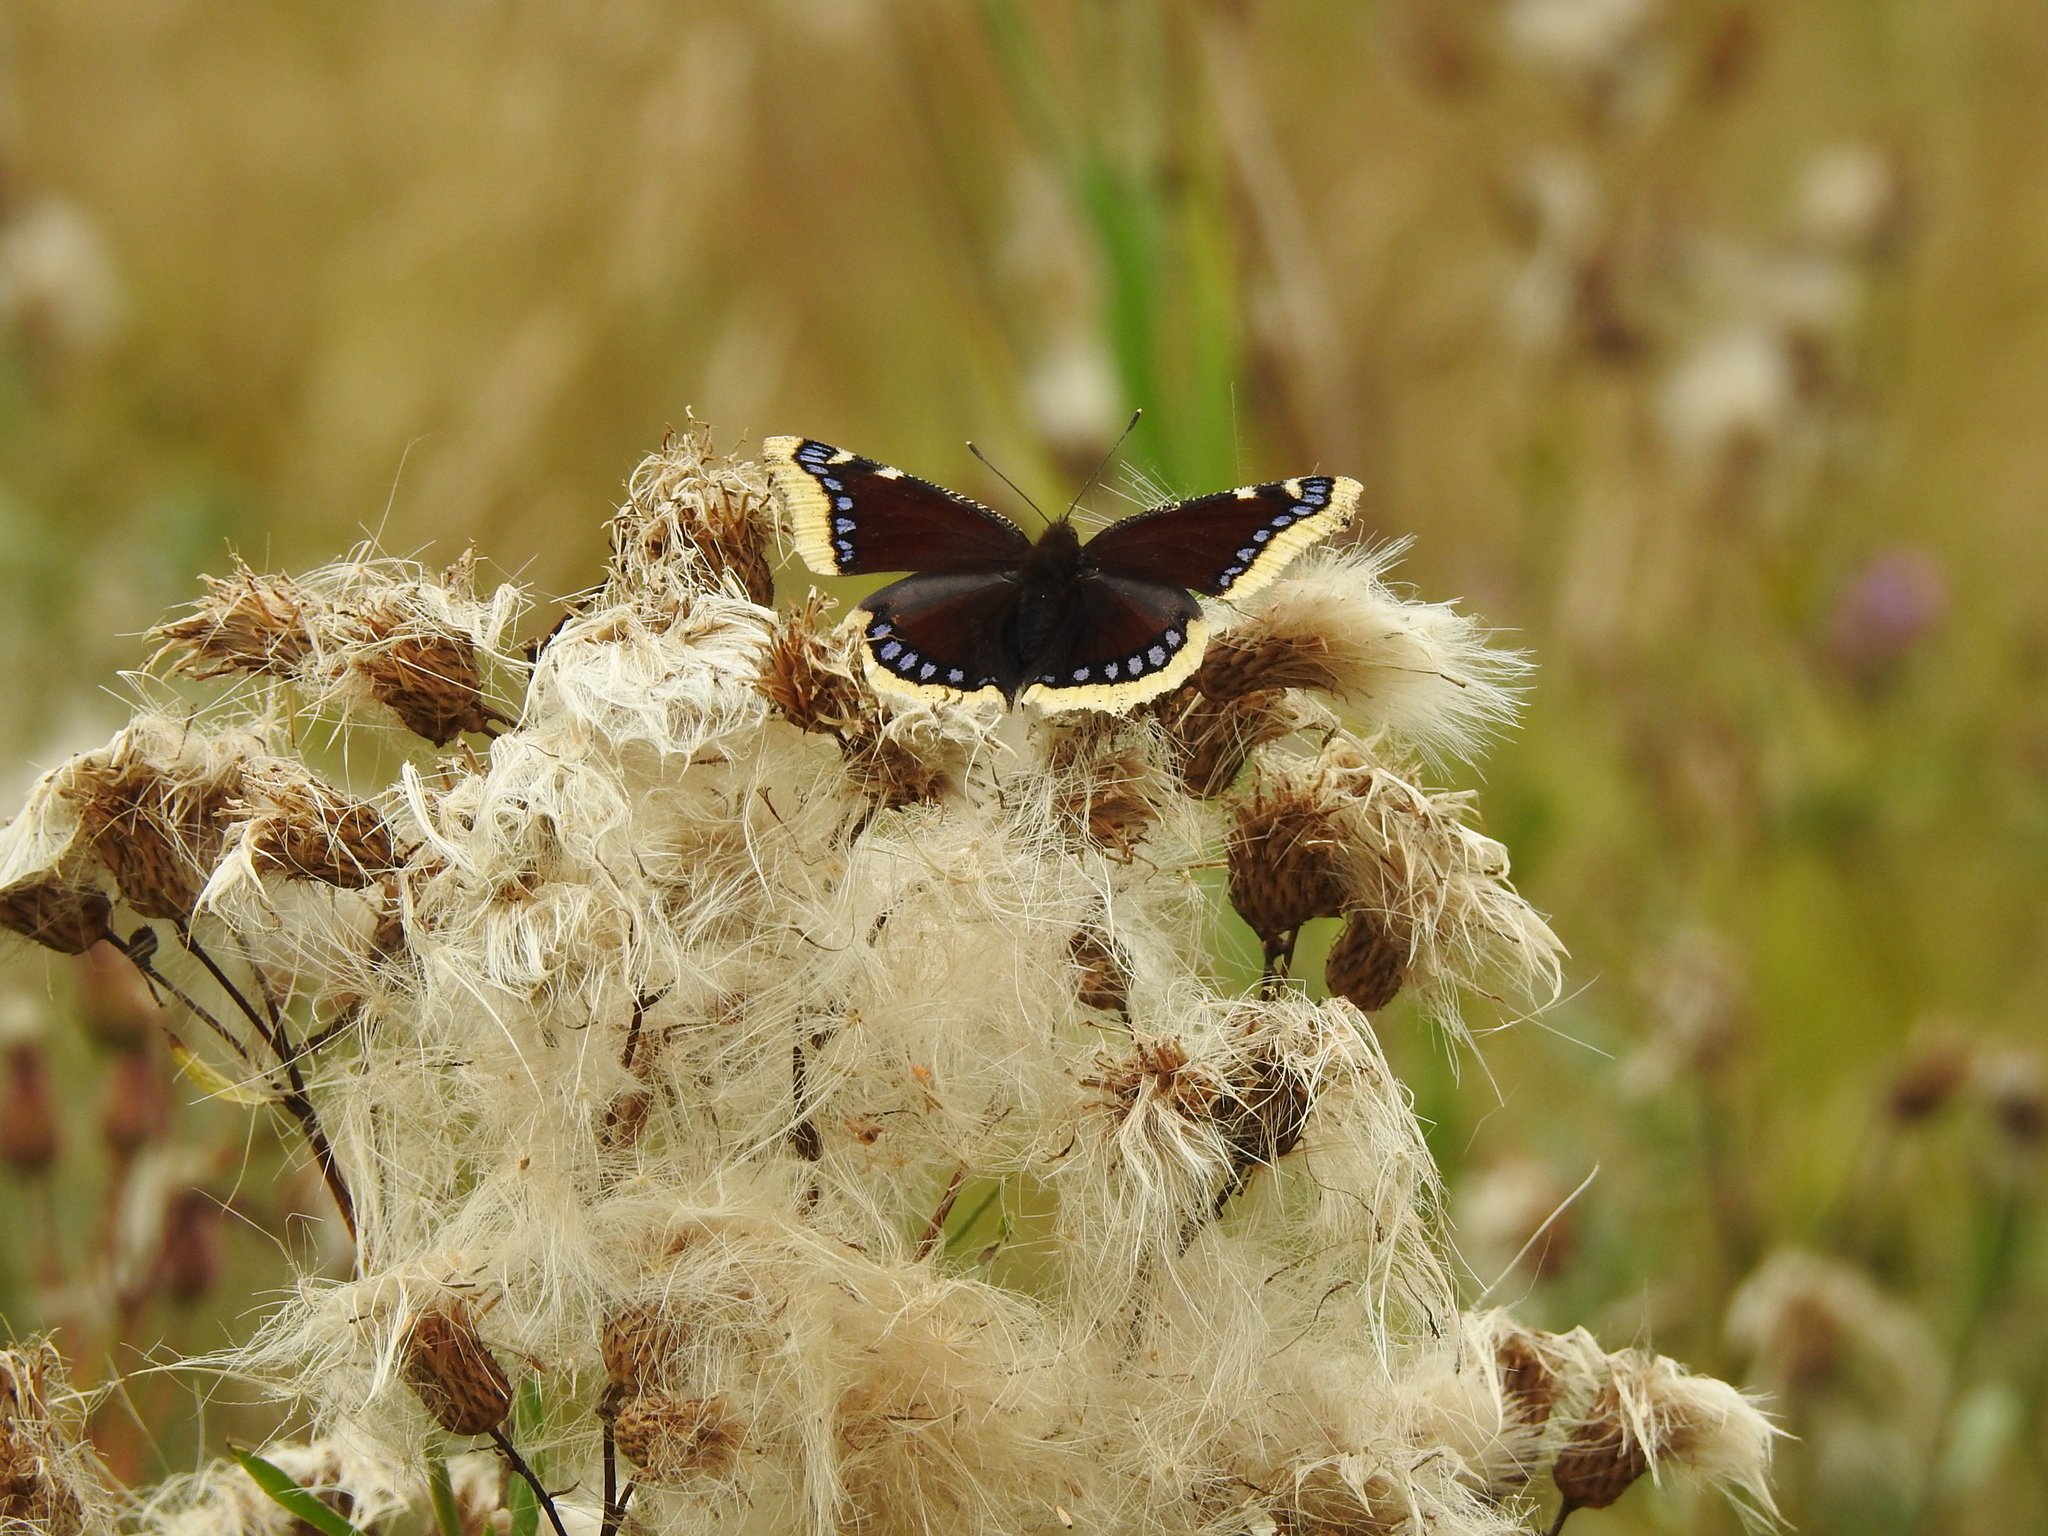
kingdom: Animalia
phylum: Arthropoda
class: Insecta
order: Lepidoptera
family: Nymphalidae
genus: Nymphalis
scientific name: Nymphalis antiopa
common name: Camberwell beauty
